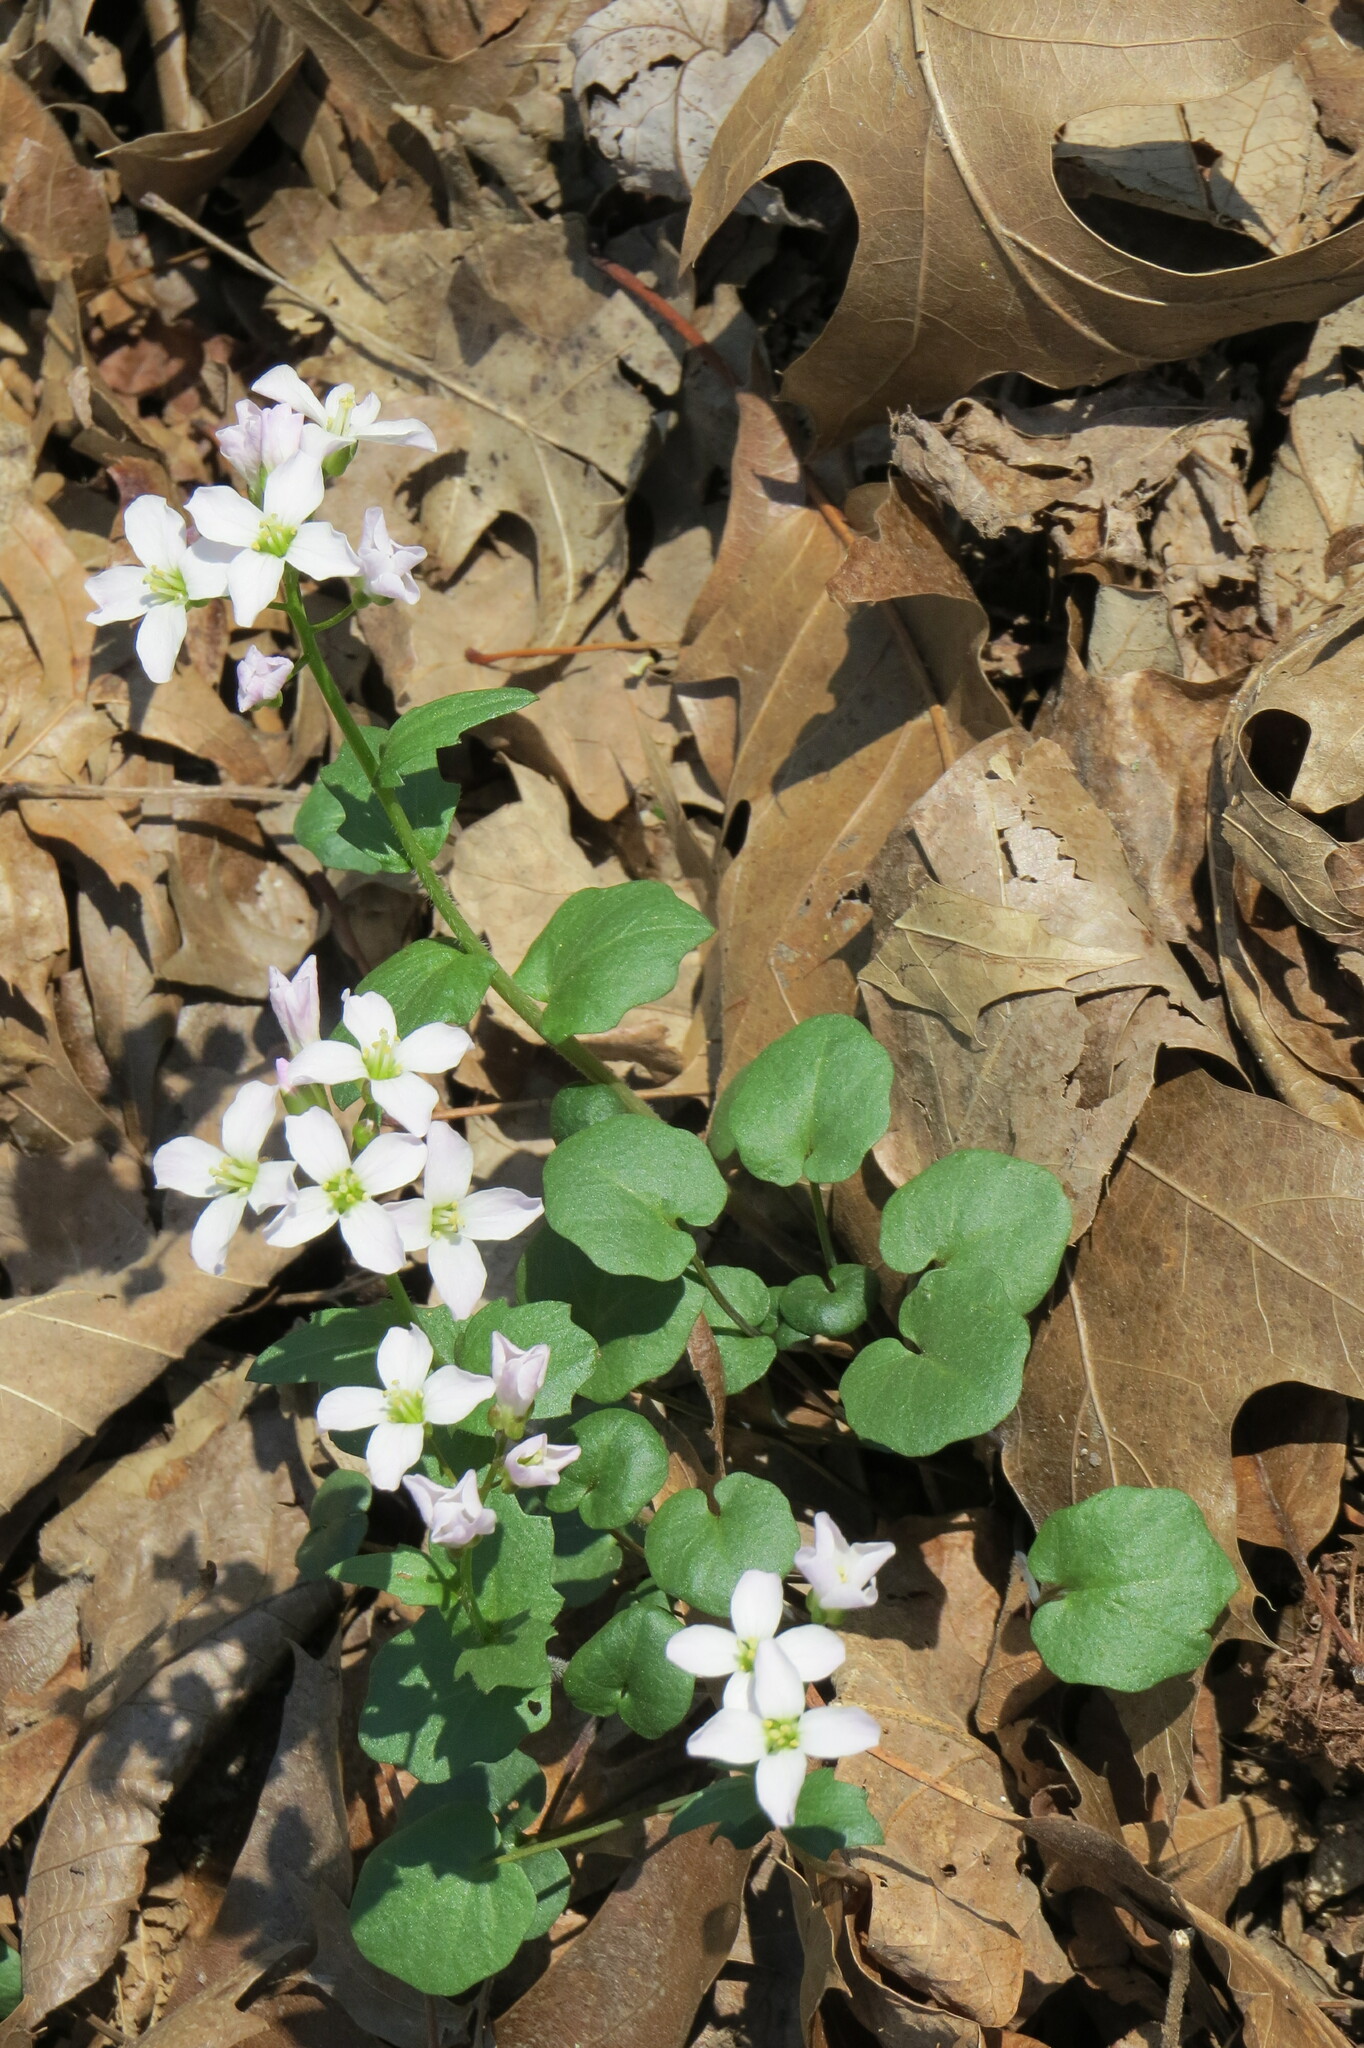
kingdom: Plantae
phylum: Tracheophyta
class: Magnoliopsida
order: Brassicales
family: Brassicaceae
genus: Cardamine
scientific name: Cardamine douglassii
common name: Purple cress
